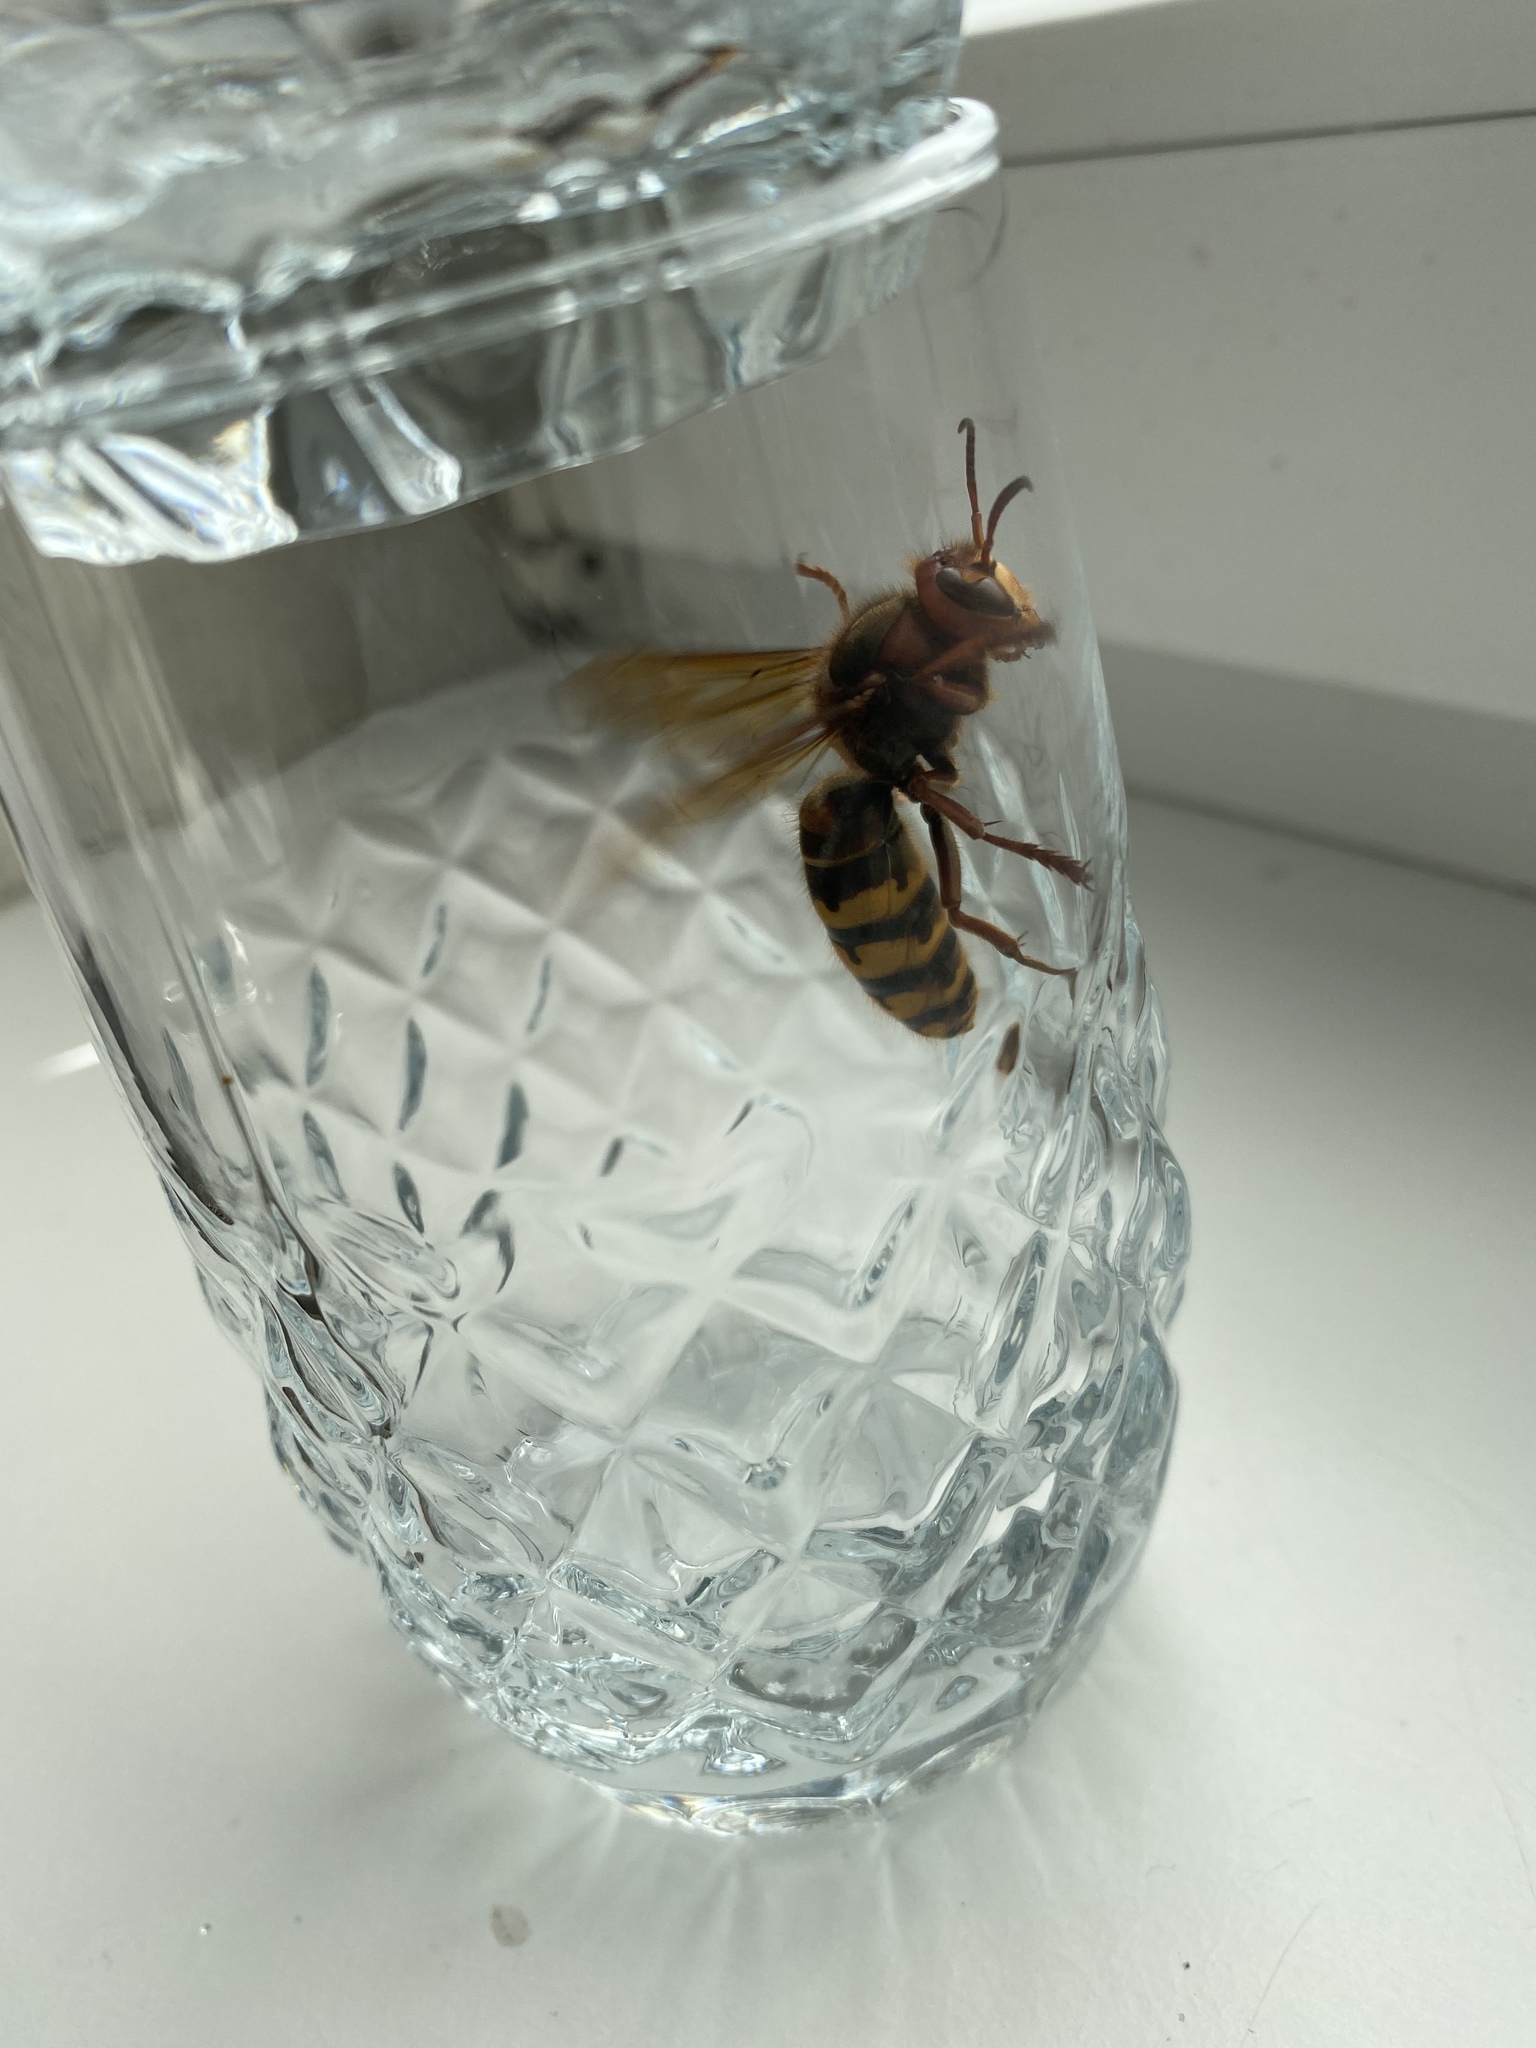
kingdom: Animalia
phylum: Arthropoda
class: Insecta
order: Hymenoptera
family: Vespidae
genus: Vespa
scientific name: Vespa crabro
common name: Hornet
